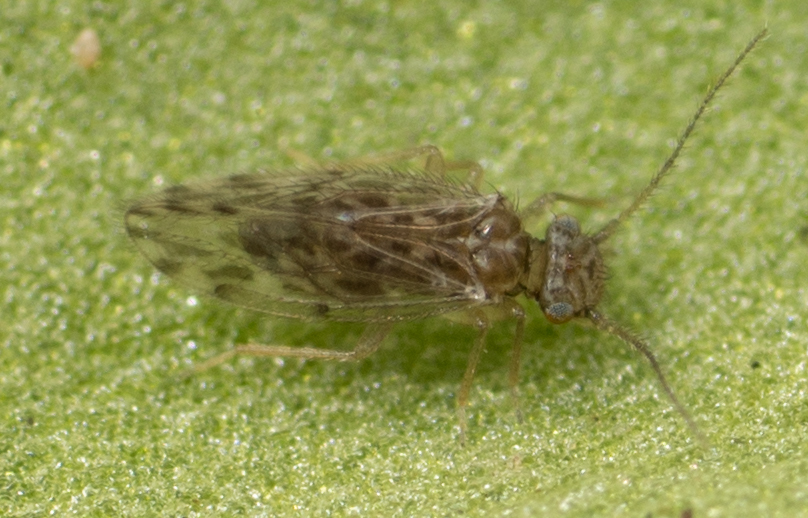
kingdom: Animalia
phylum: Arthropoda
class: Insecta
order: Psocodea
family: Ectopsocidae
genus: Ectopsocus
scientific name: Ectopsocus strauchi
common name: Medium-sized bark louse
